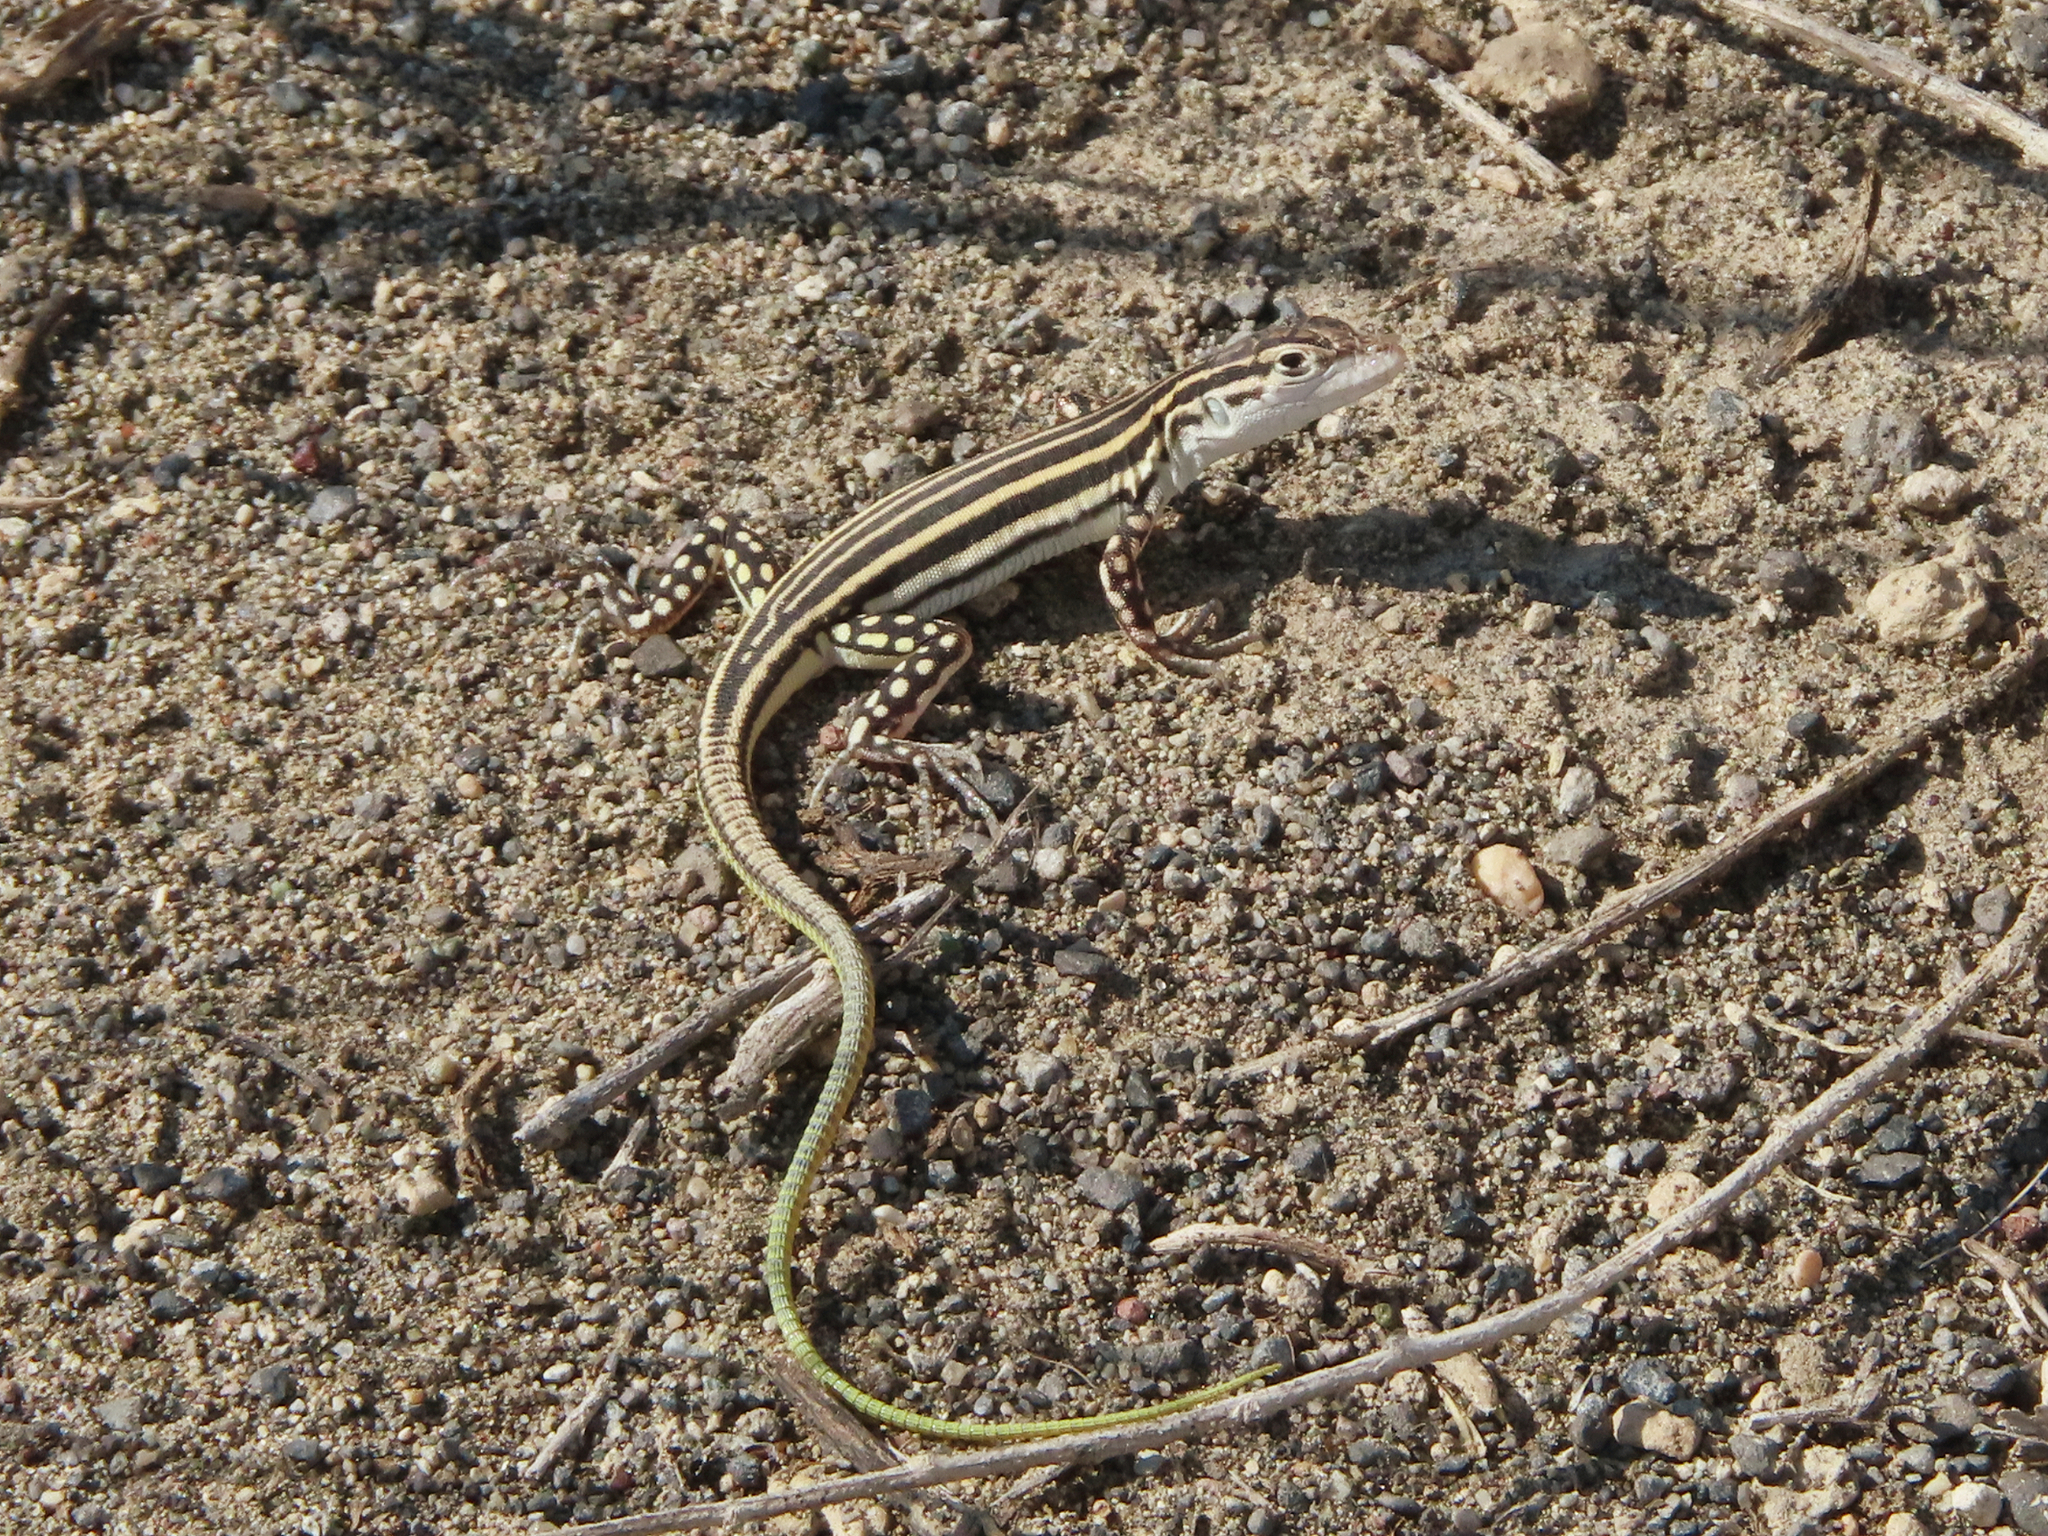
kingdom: Animalia
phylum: Chordata
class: Squamata
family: Lacertidae
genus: Eremias
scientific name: Eremias pleskei
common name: Pleske's racerunner
